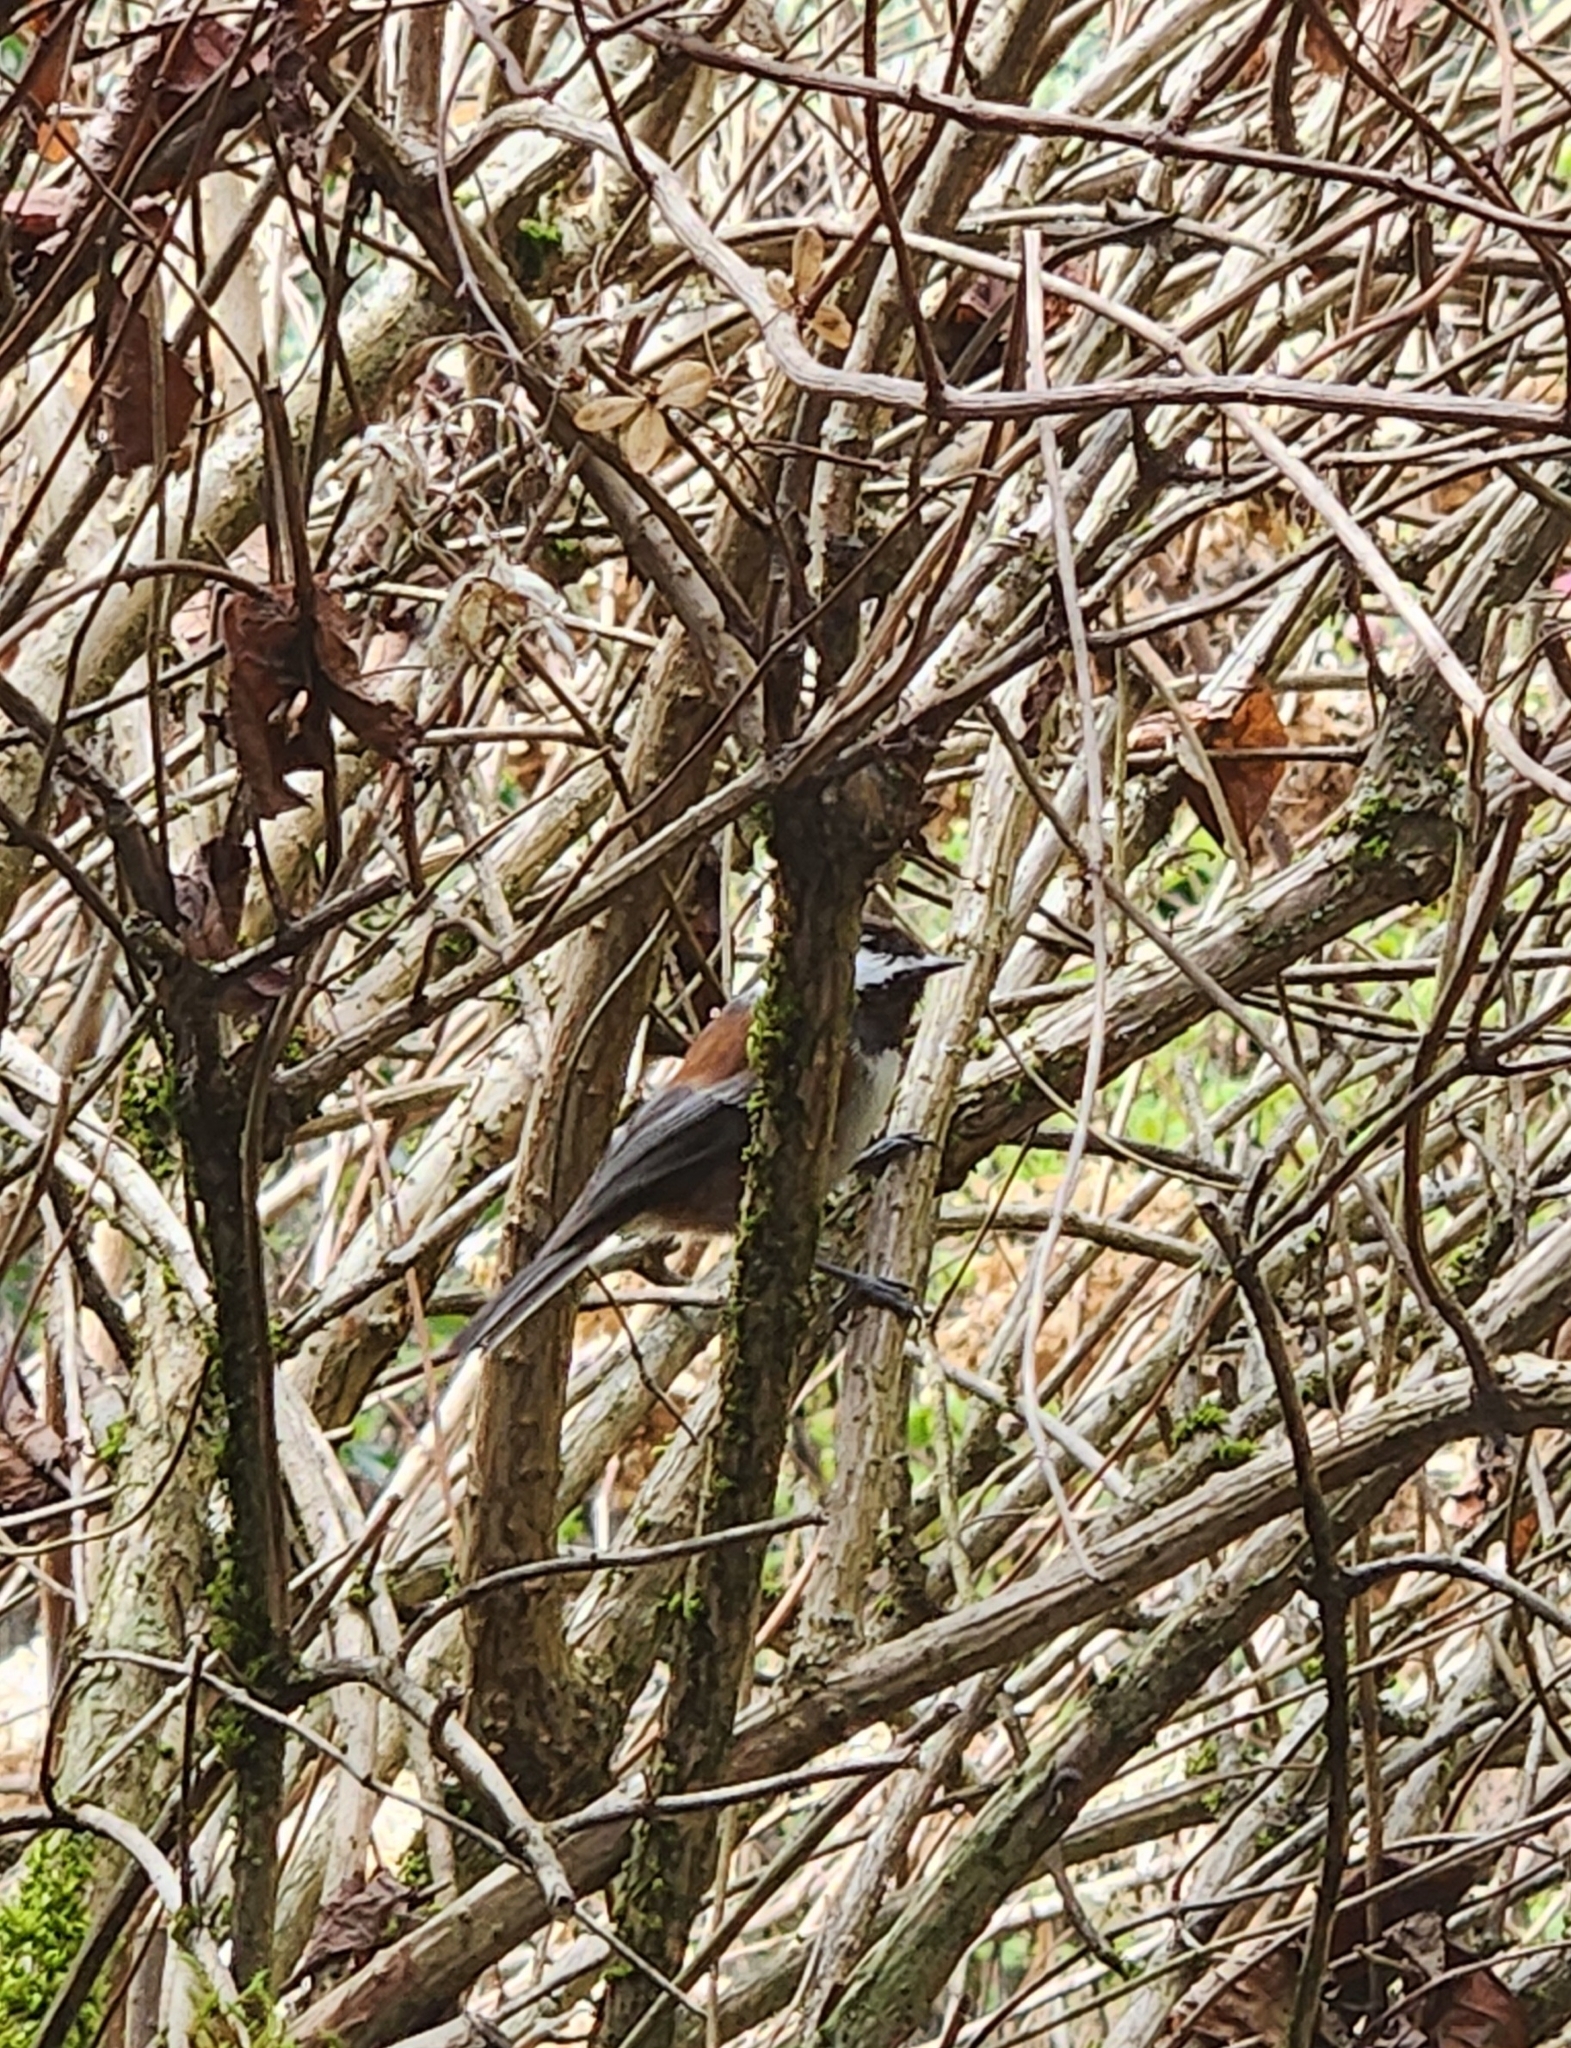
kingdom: Animalia
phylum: Chordata
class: Aves
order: Passeriformes
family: Paridae
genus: Poecile
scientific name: Poecile rufescens
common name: Chestnut-backed chickadee
